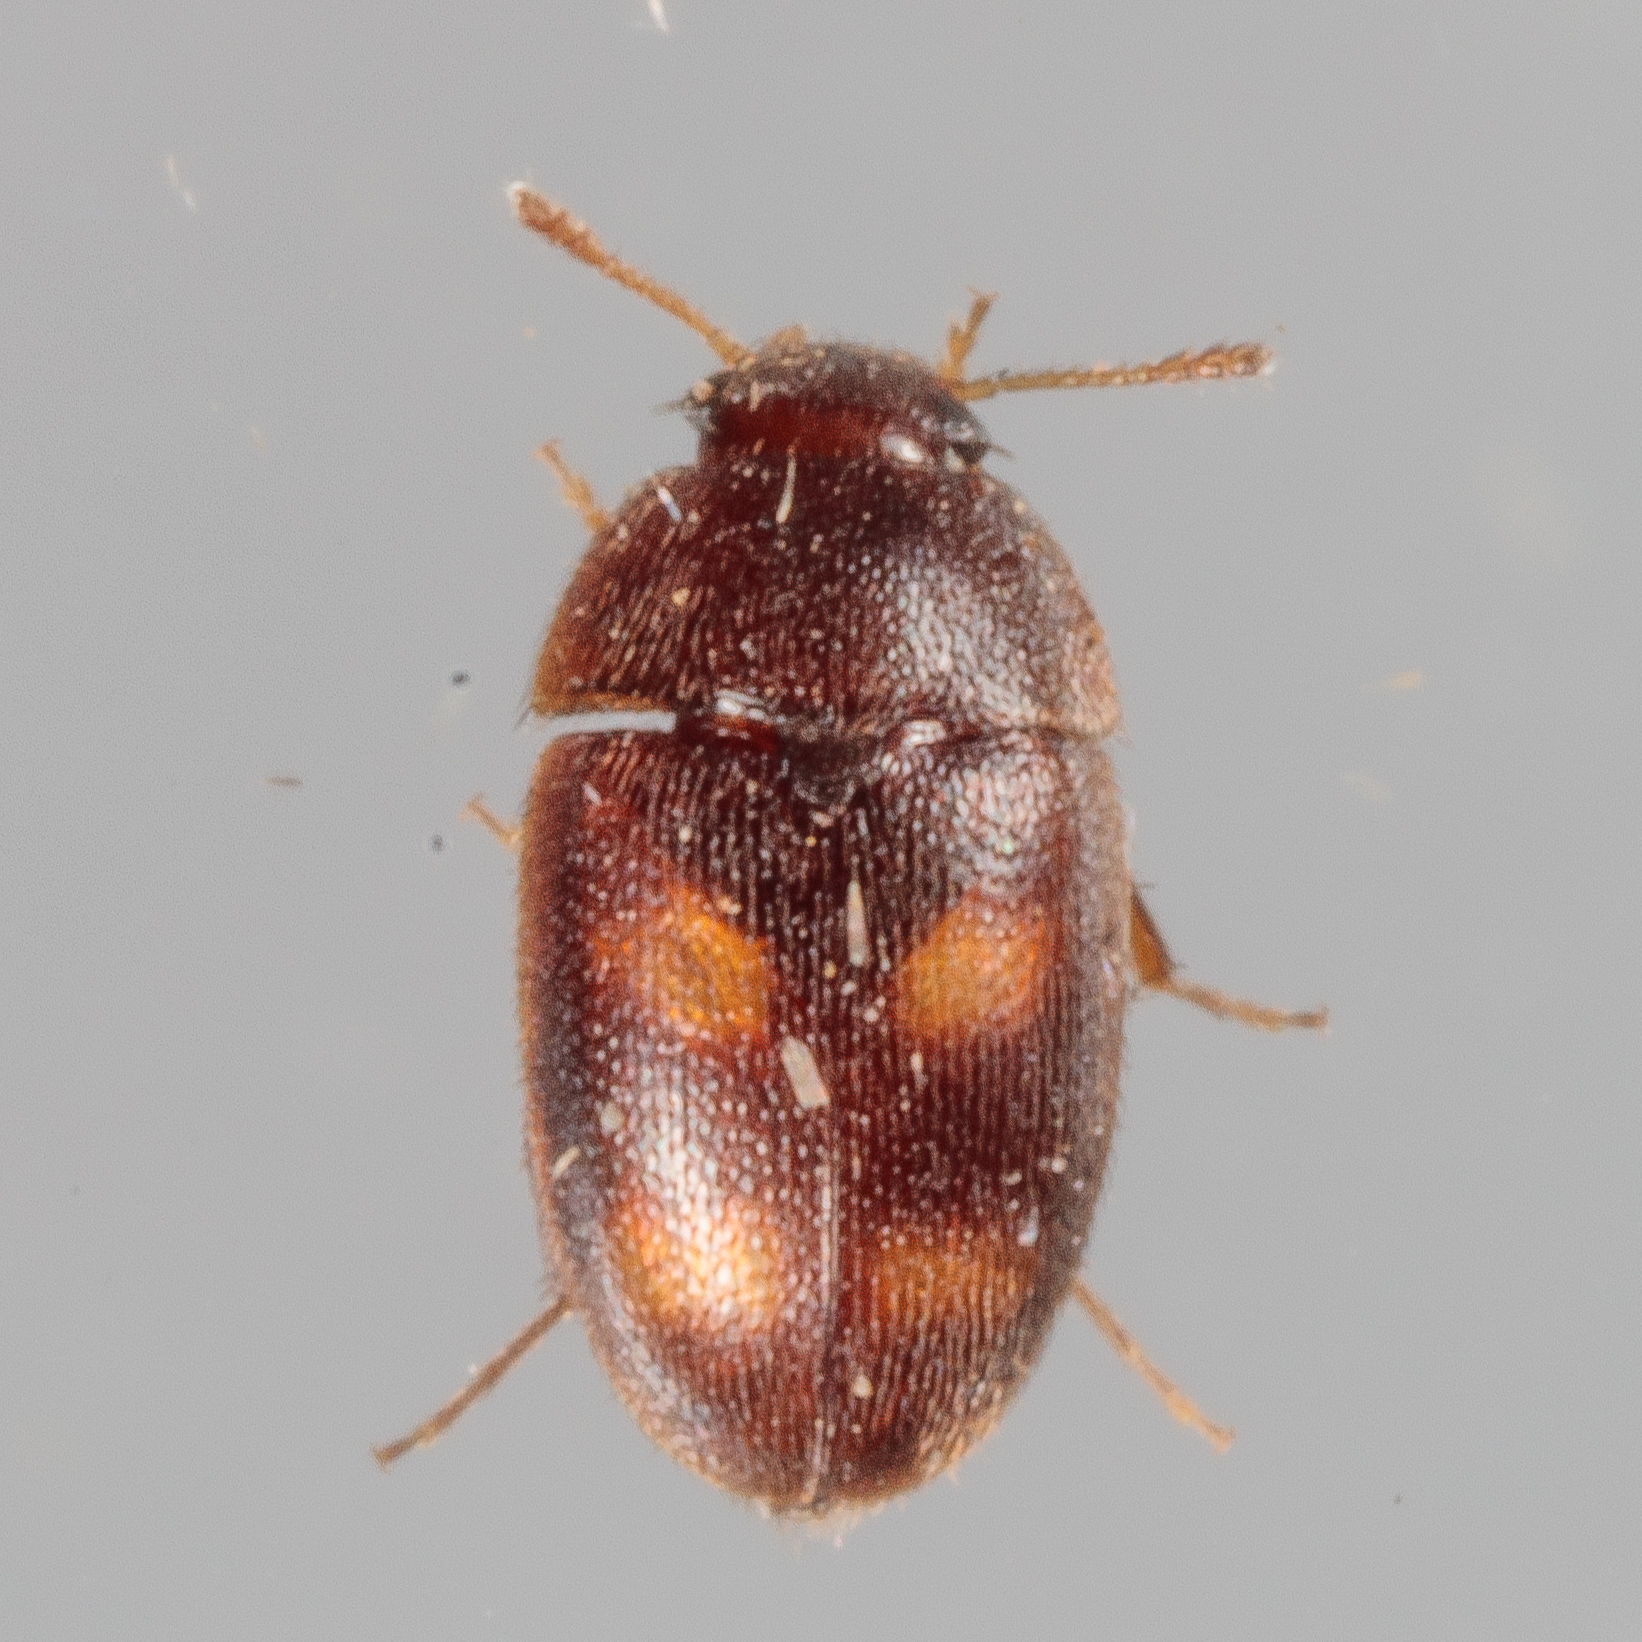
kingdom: Animalia
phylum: Arthropoda
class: Insecta
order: Coleoptera
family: Mycetophagidae
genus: Litargus
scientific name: Litargus tetraspilotus
